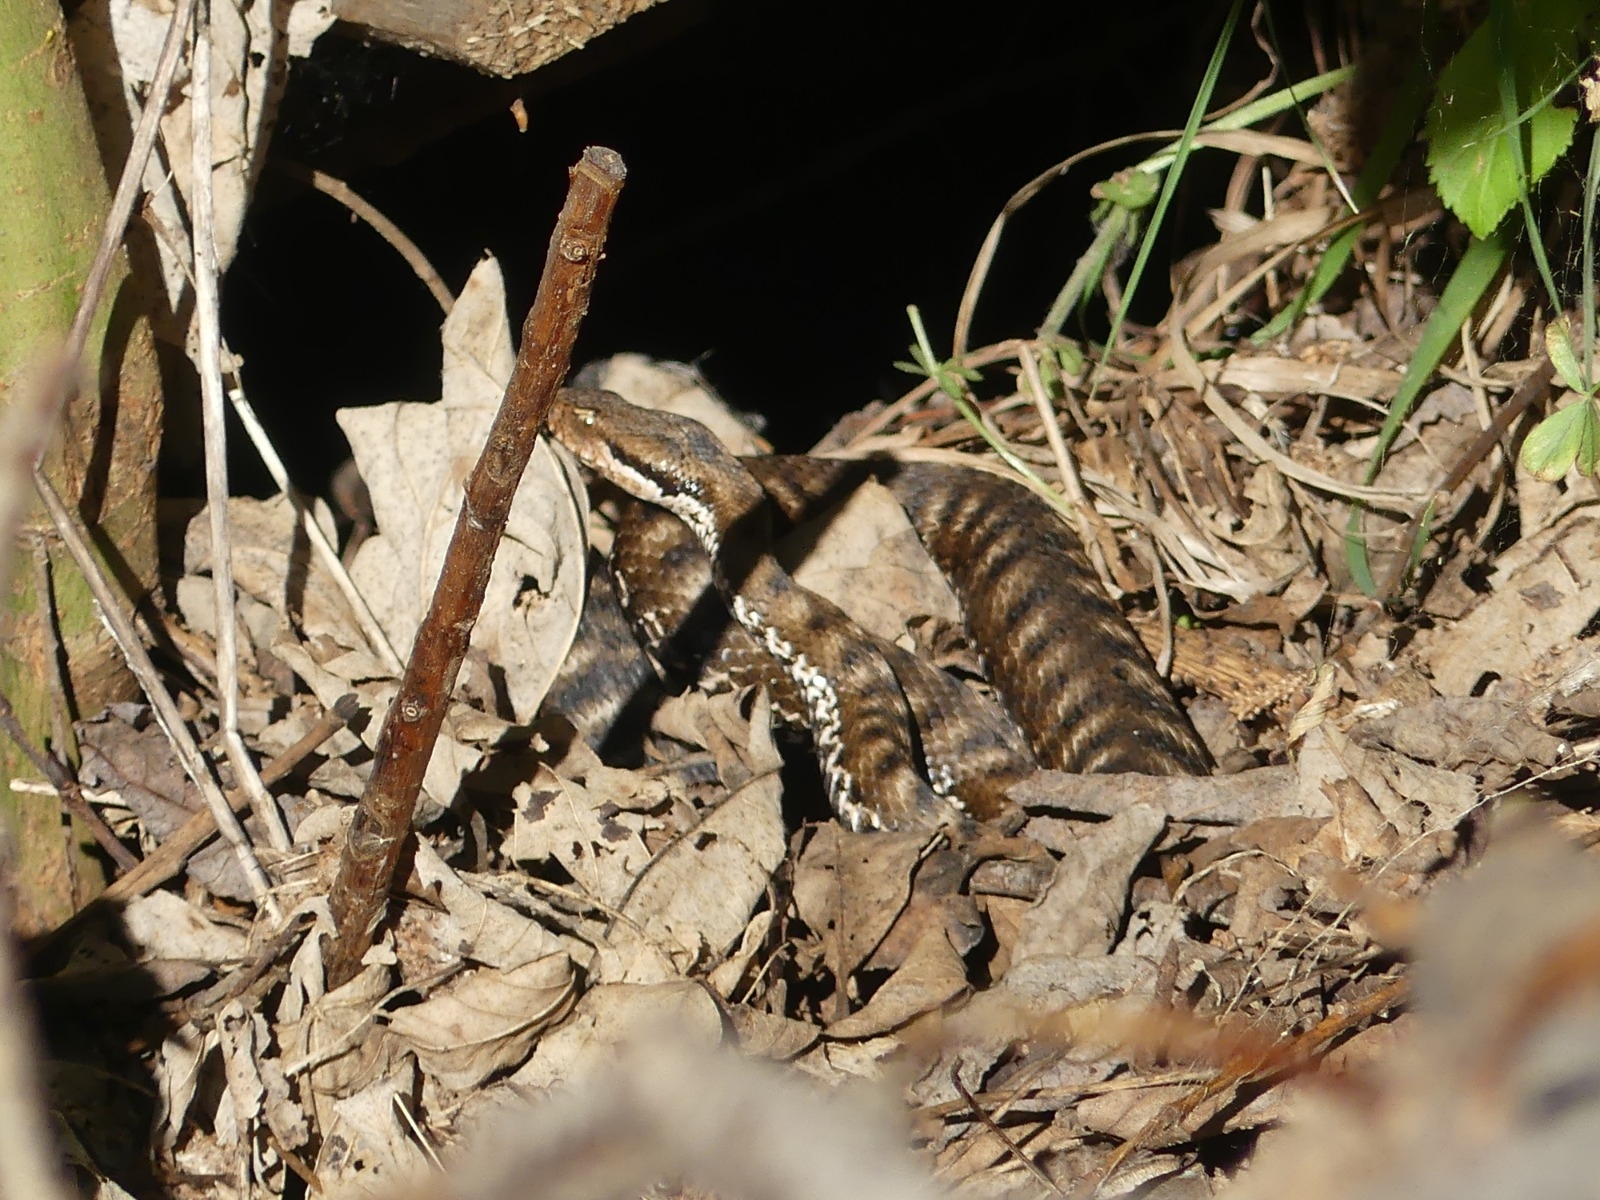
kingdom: Animalia
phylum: Chordata
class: Squamata
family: Viperidae
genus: Vipera
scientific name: Vipera aspis
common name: Asp viper
